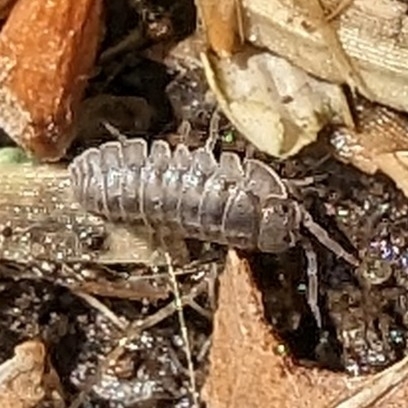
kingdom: Animalia
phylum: Arthropoda
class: Malacostraca
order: Isopoda
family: Armadillidiidae
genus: Armadillidium
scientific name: Armadillidium nasatum
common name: Isopod
